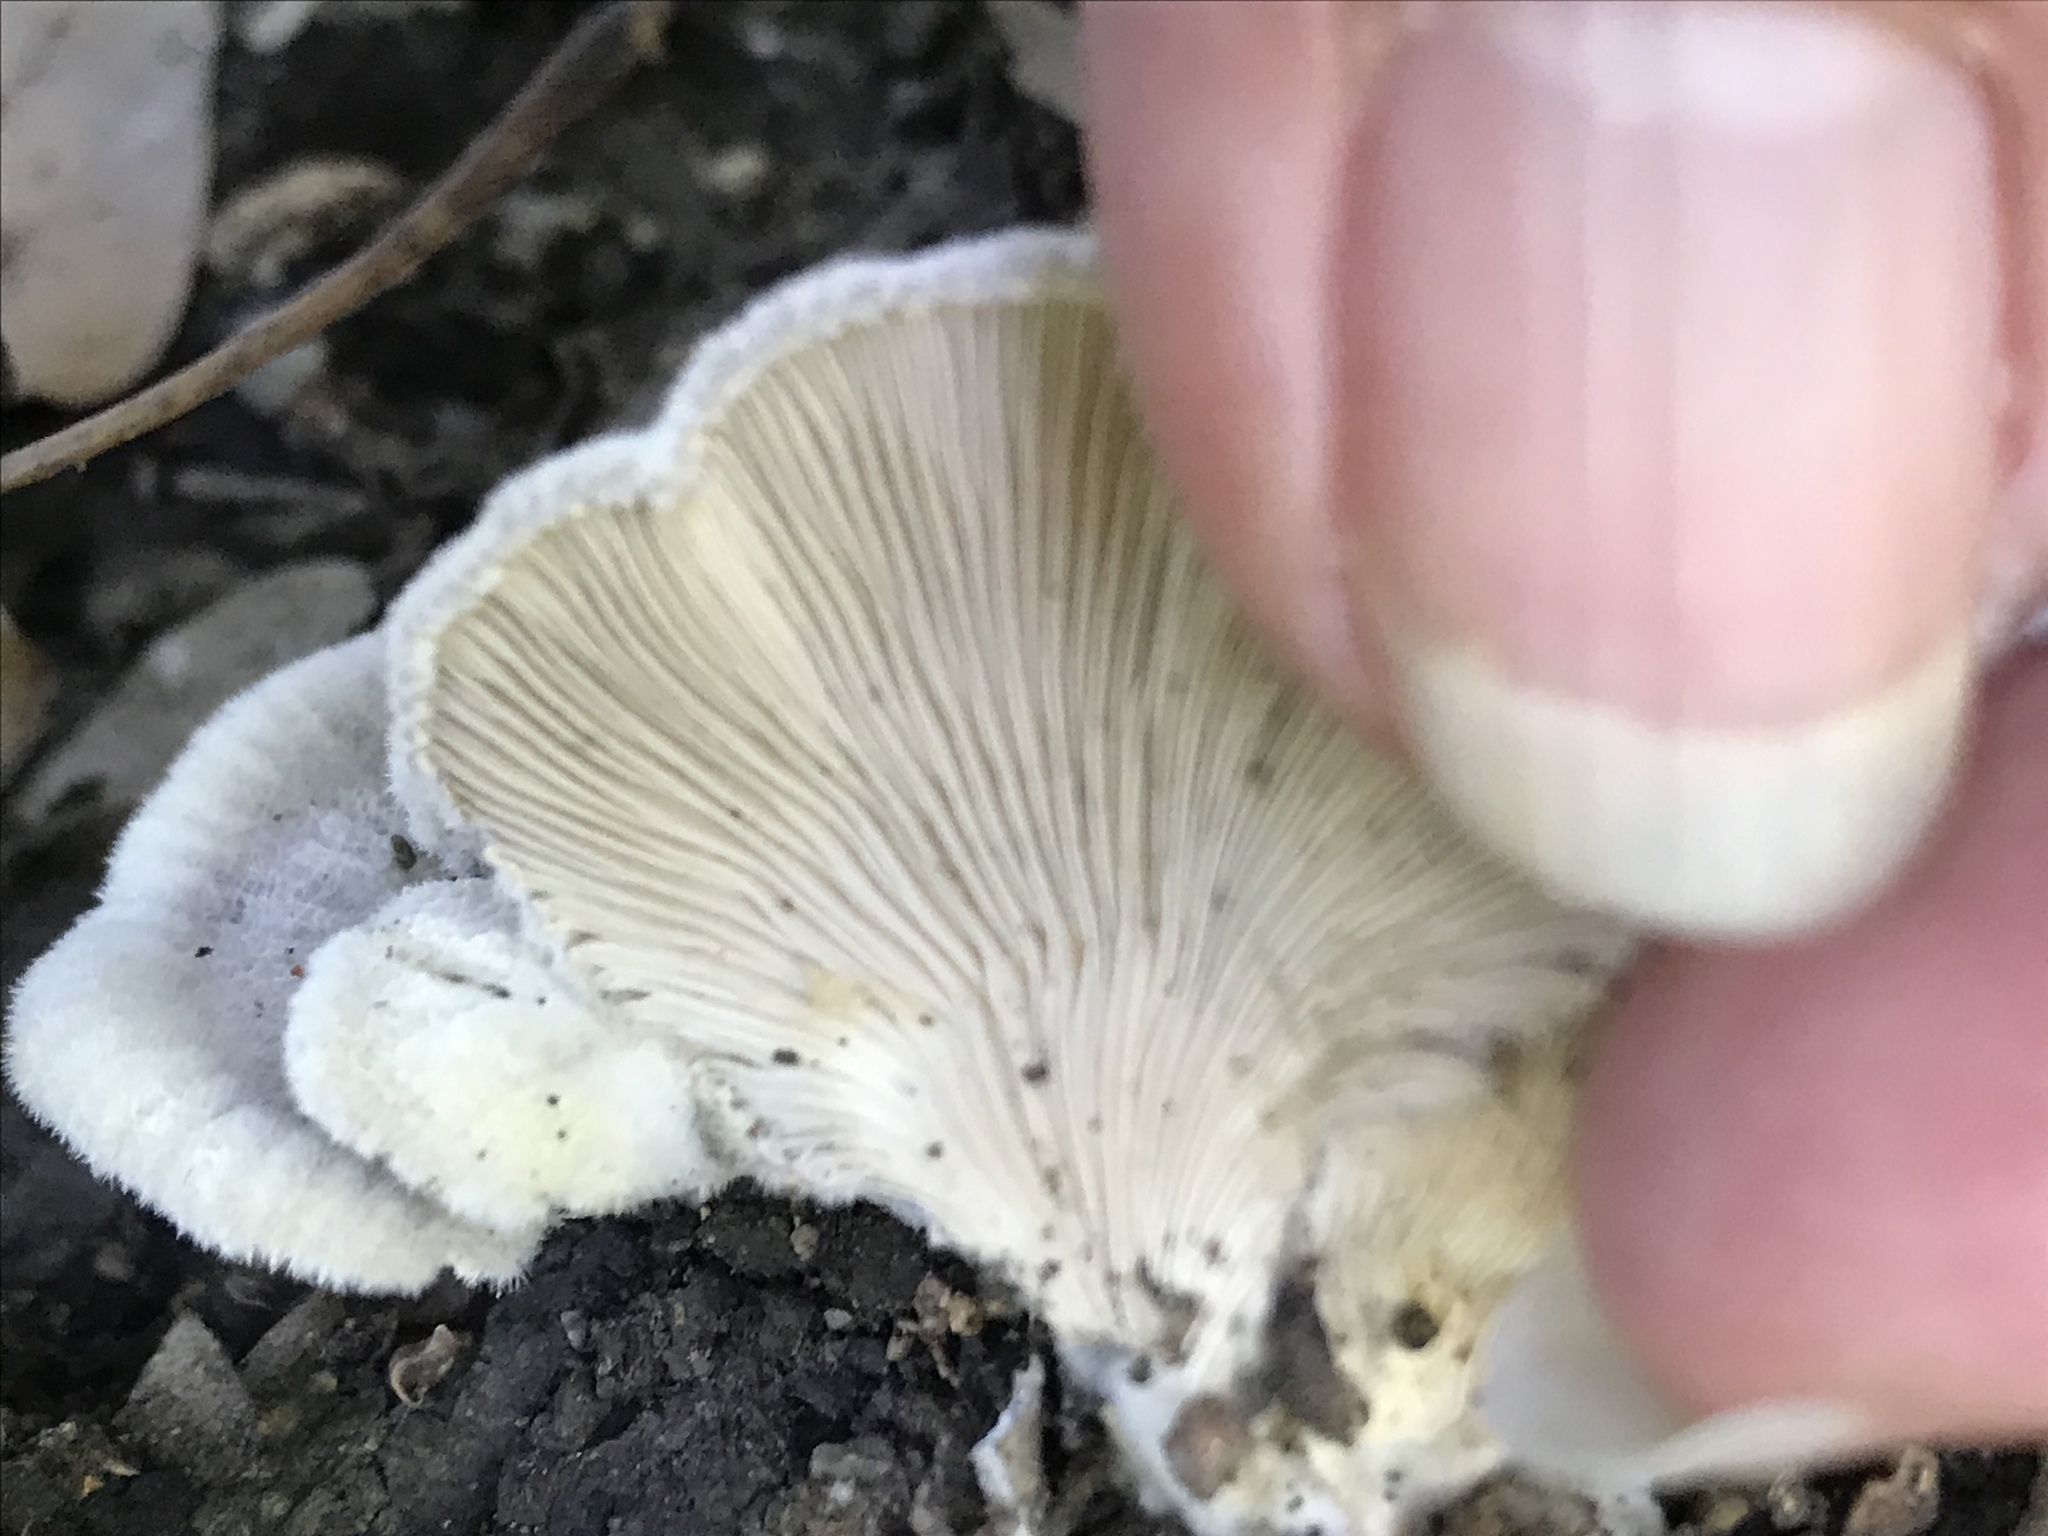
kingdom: Fungi
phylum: Basidiomycota
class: Agaricomycetes
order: Agaricales
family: Schizophyllaceae
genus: Schizophyllum
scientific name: Schizophyllum commune
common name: Common porecrust
